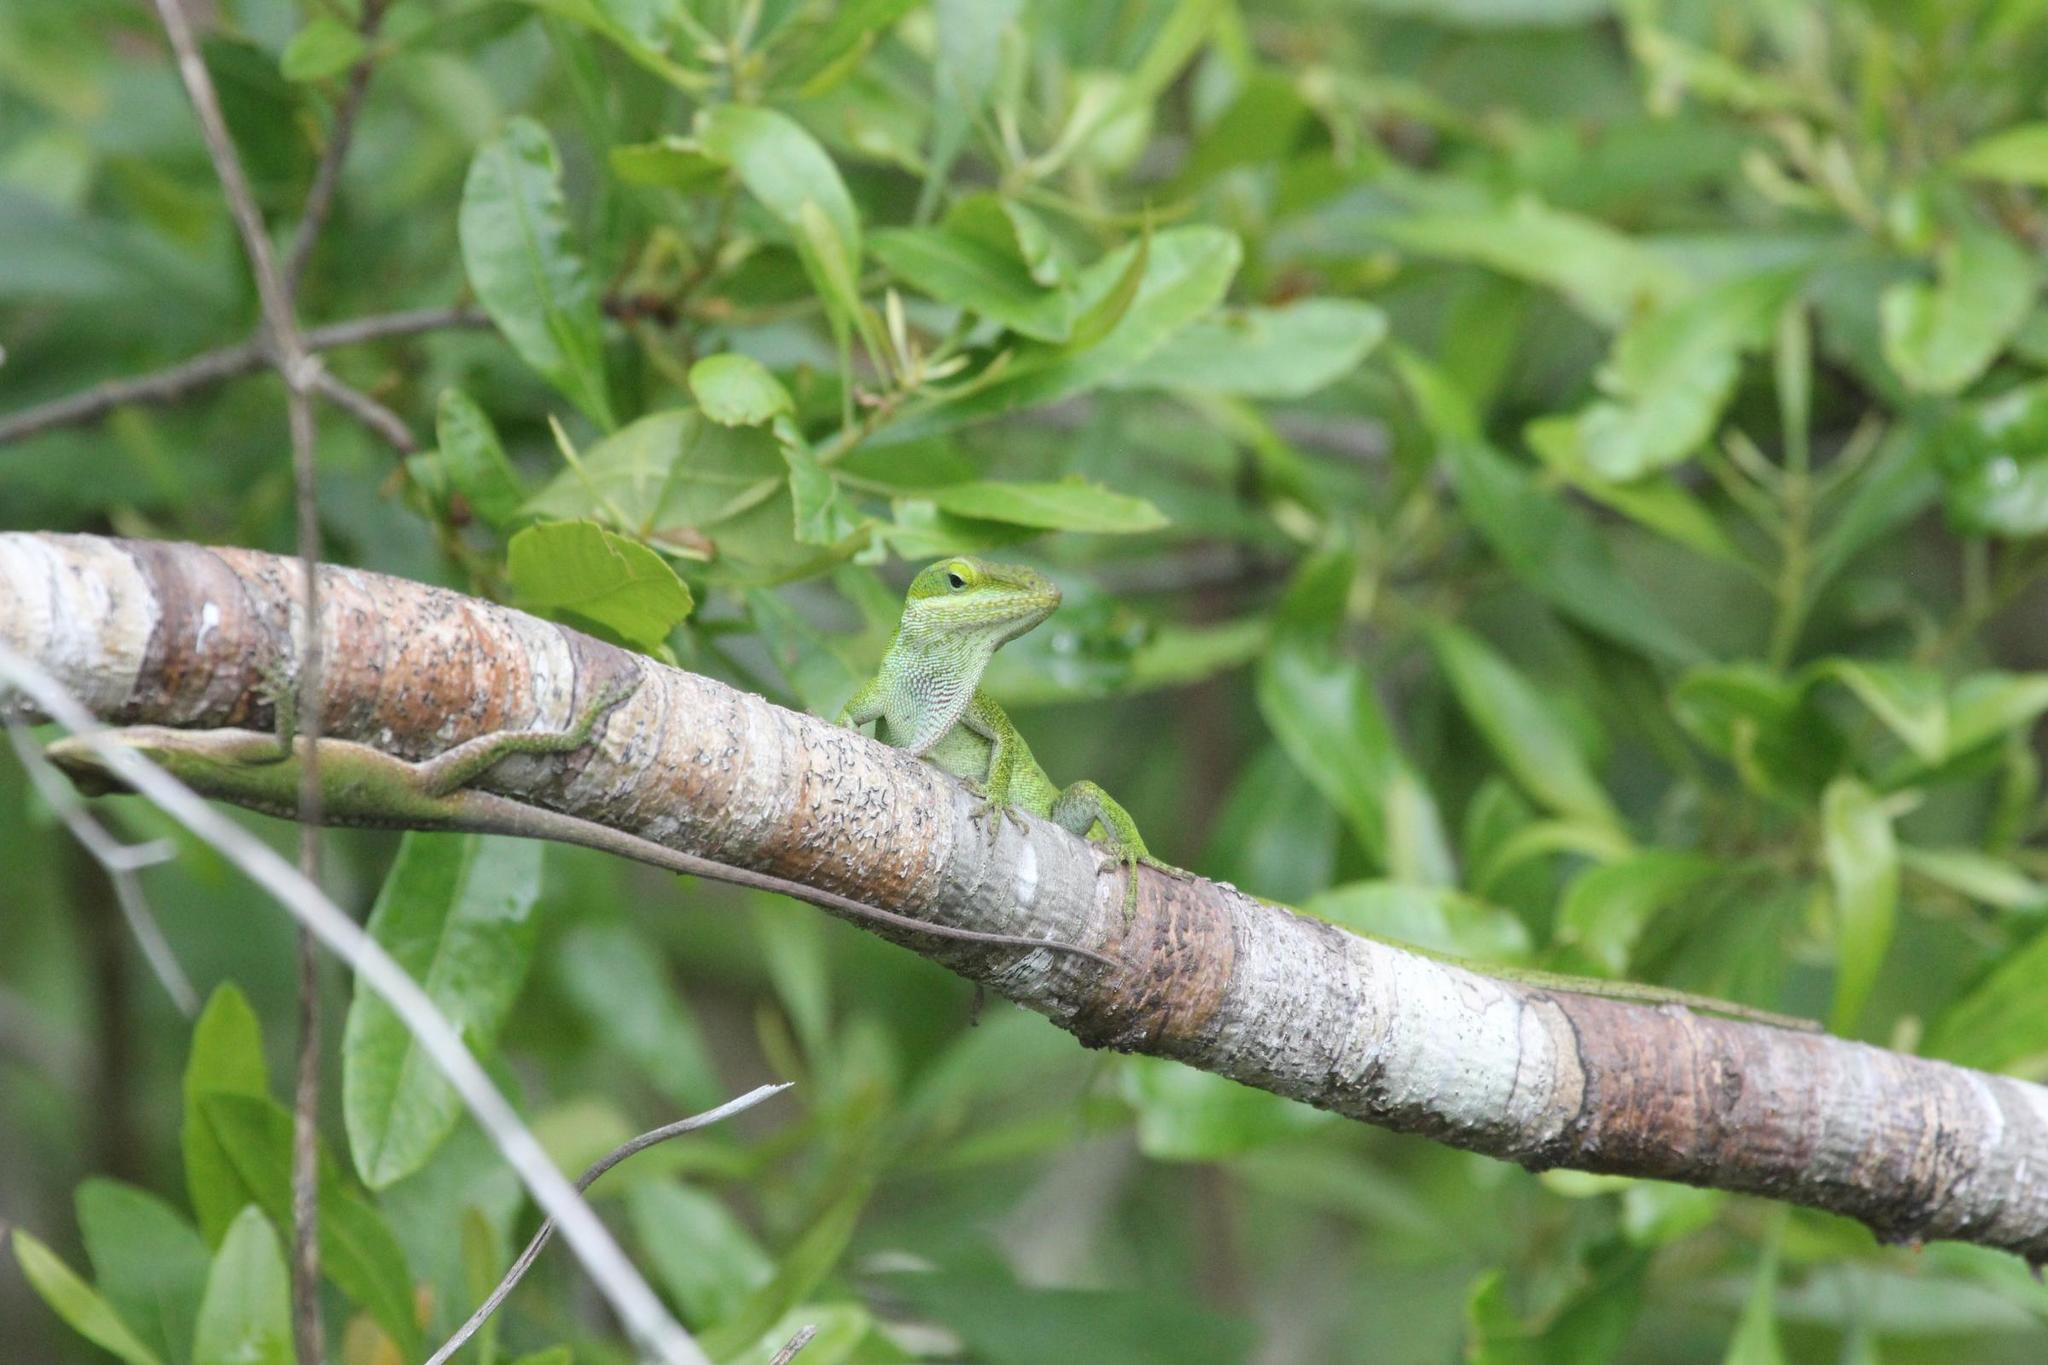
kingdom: Animalia
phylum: Chordata
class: Squamata
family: Dactyloidae
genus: Anolis
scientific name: Anolis carolinensis
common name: Green anole
